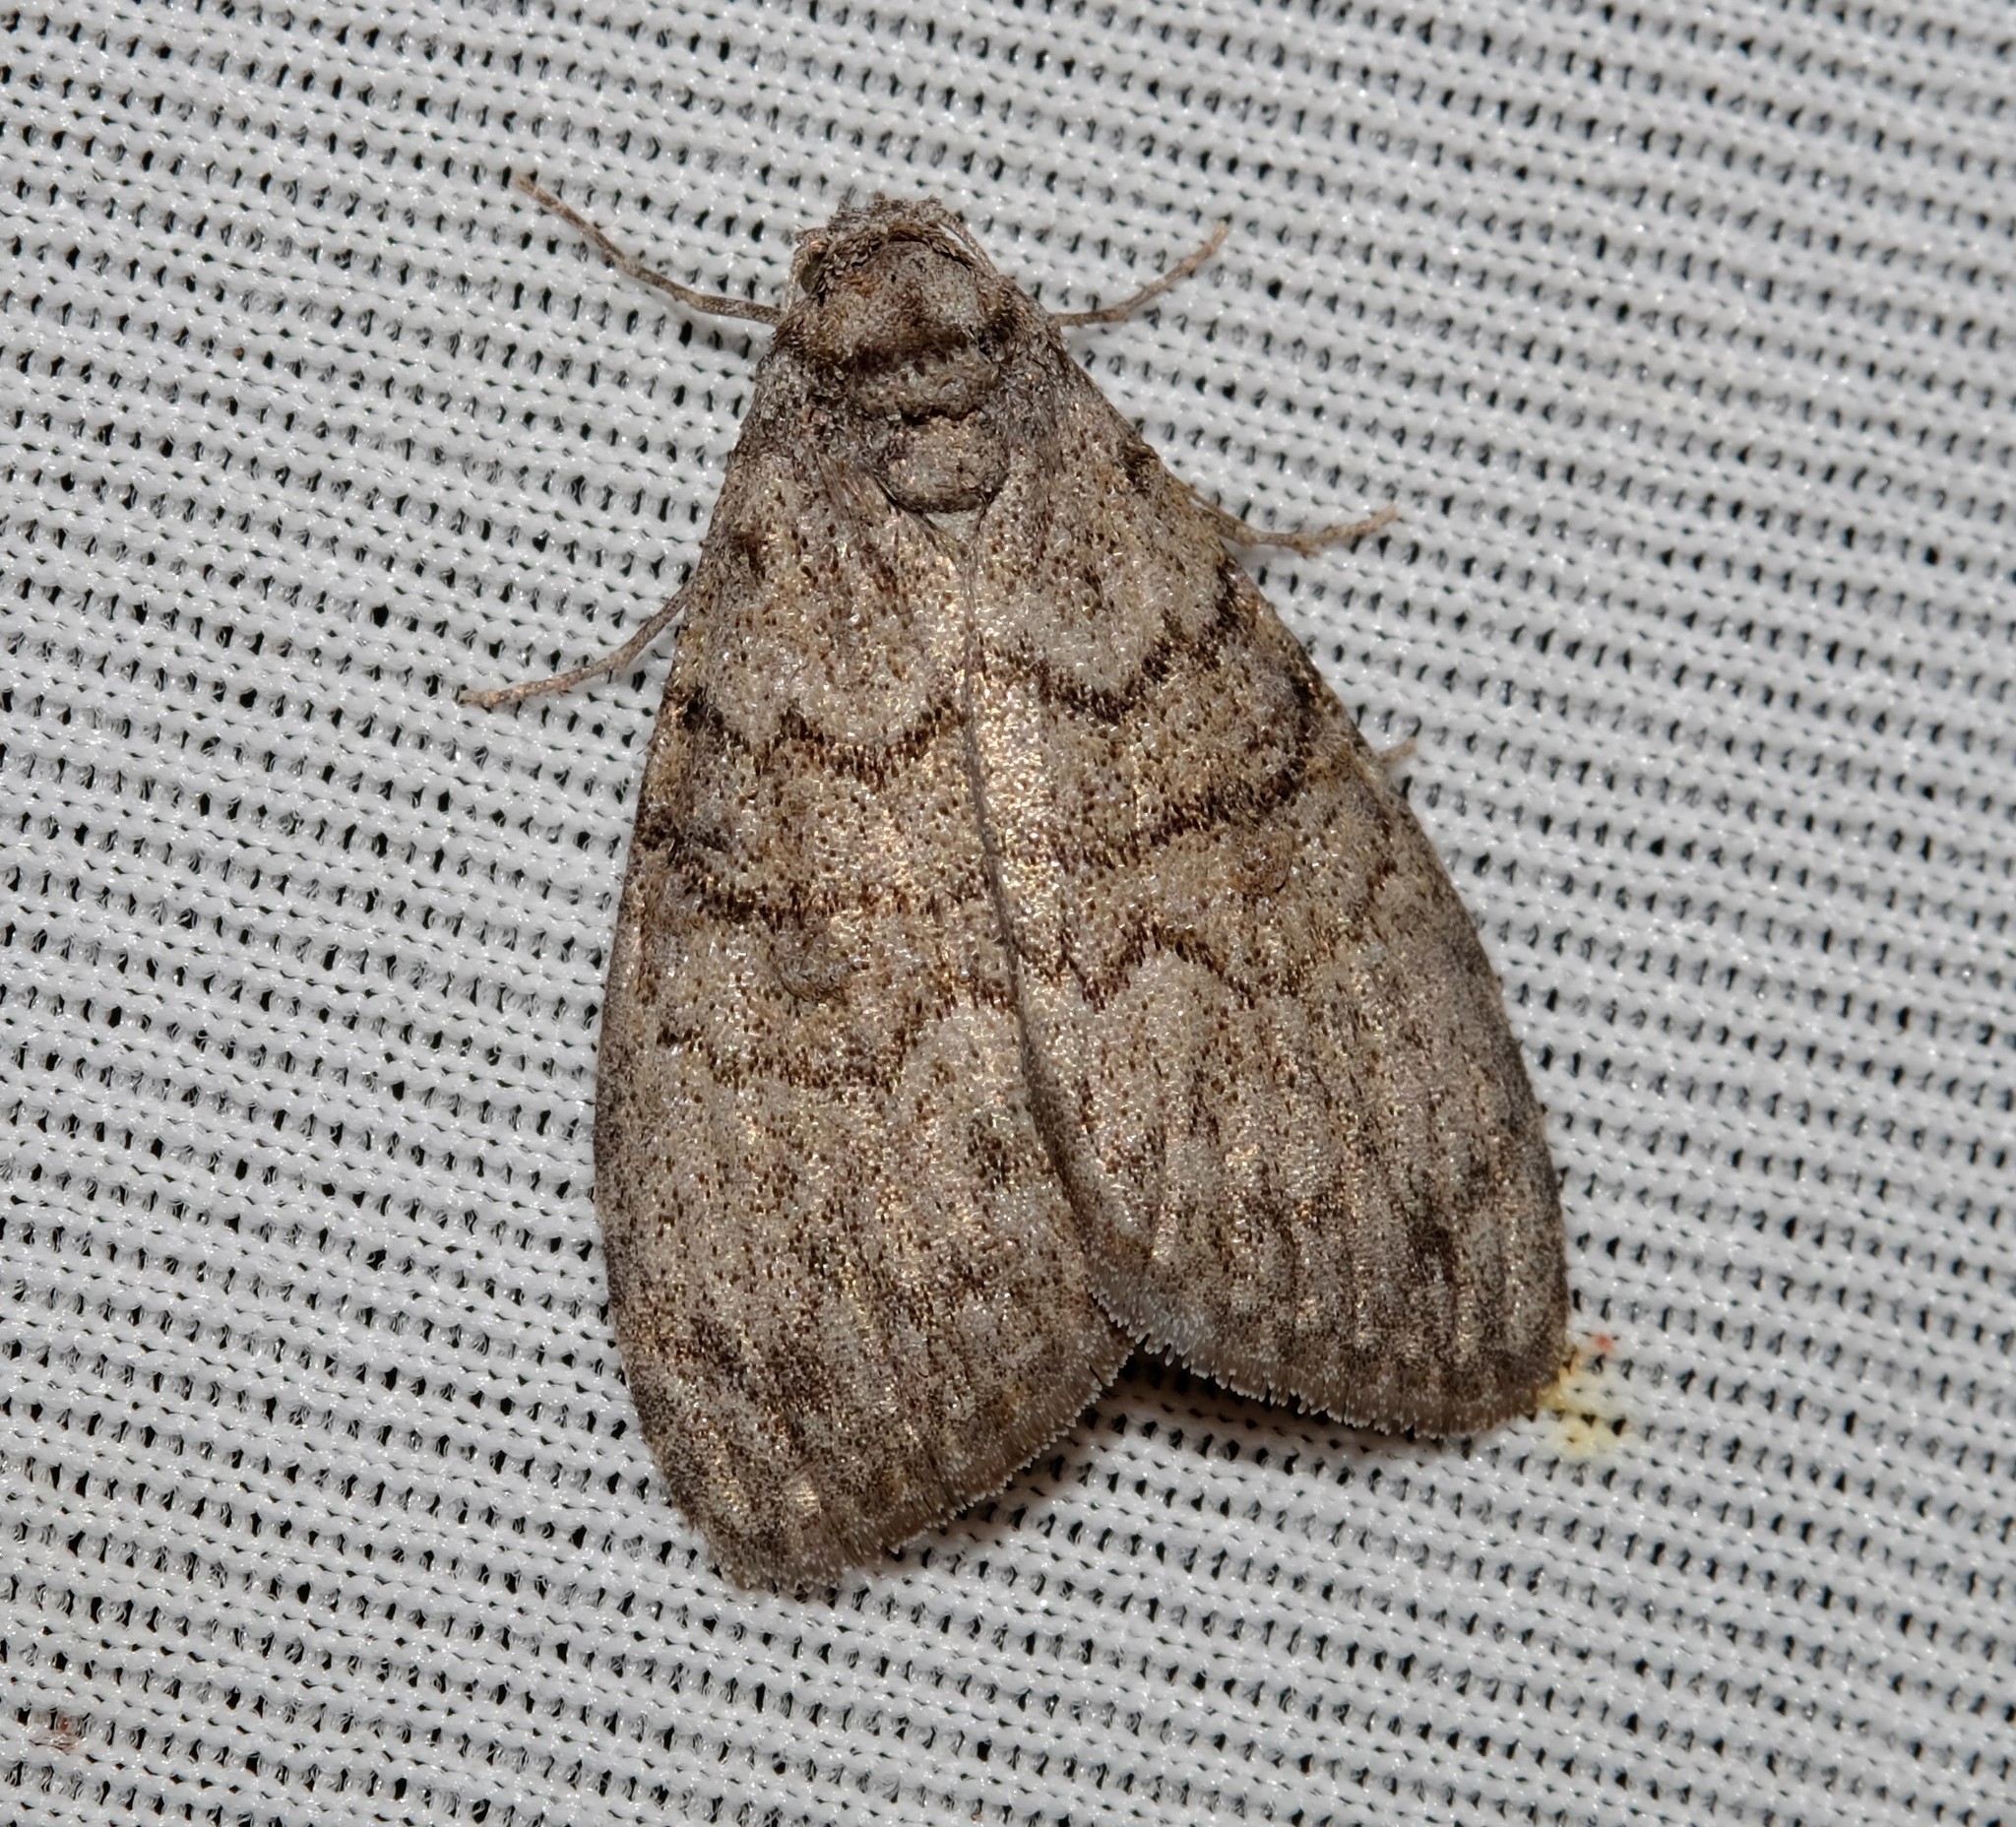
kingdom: Animalia
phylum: Arthropoda
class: Insecta
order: Lepidoptera
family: Nolidae
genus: Uraba
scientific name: Uraba lugens
